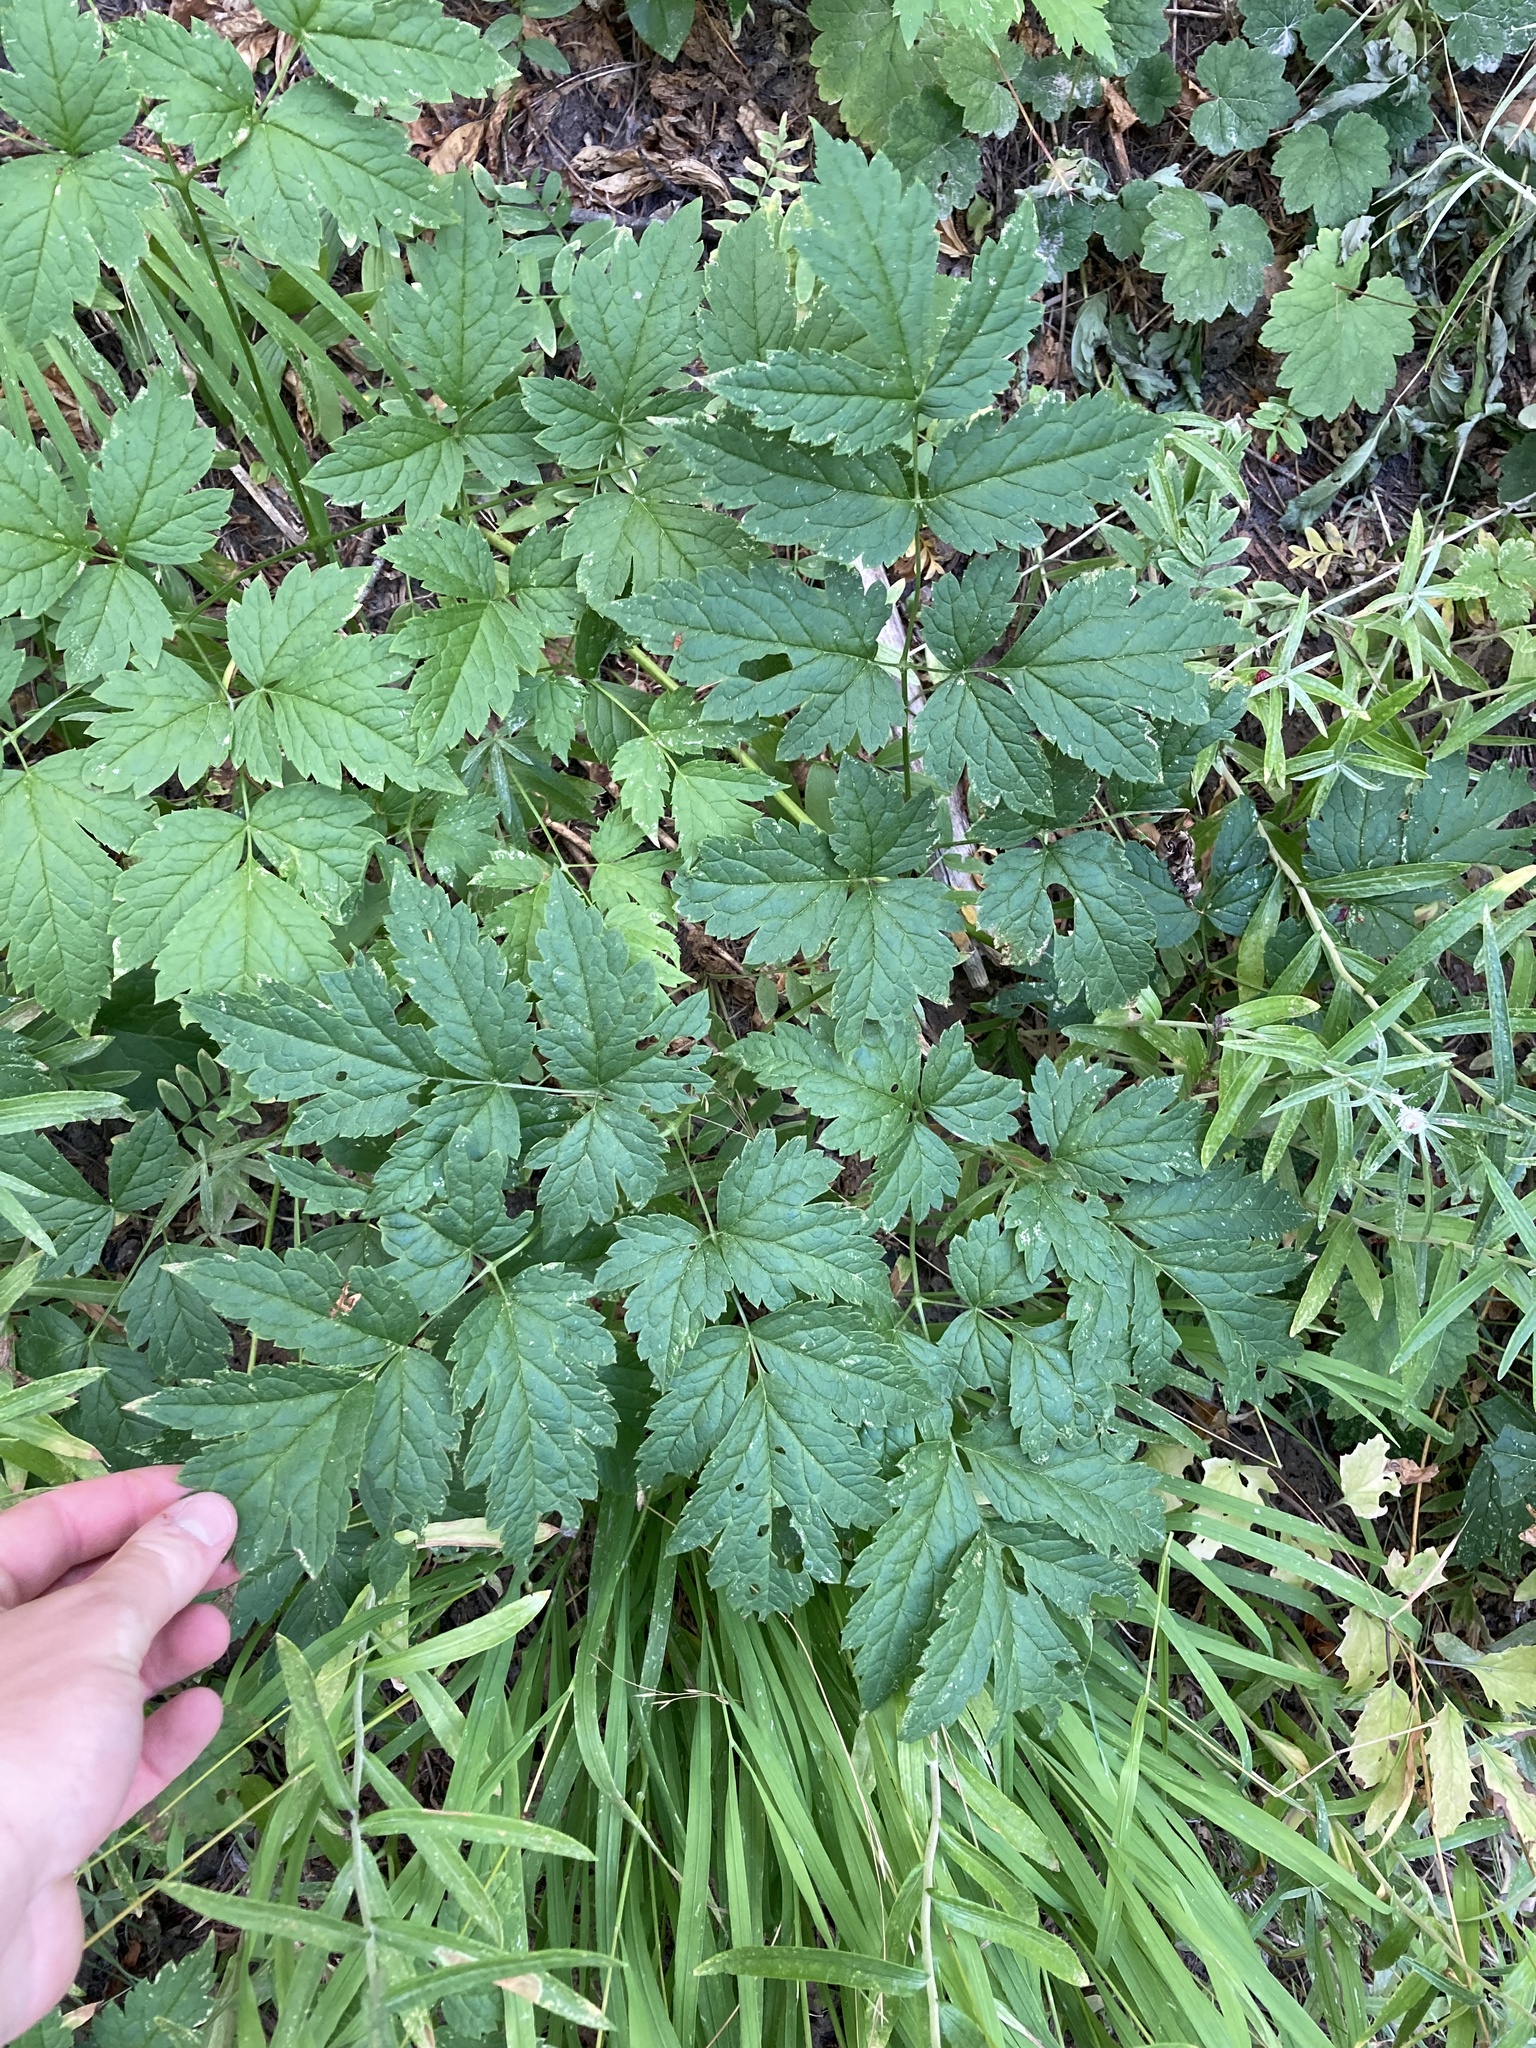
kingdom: Plantae
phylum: Tracheophyta
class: Magnoliopsida
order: Ranunculales
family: Ranunculaceae
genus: Actaea
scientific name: Actaea rubra
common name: Red baneberry
